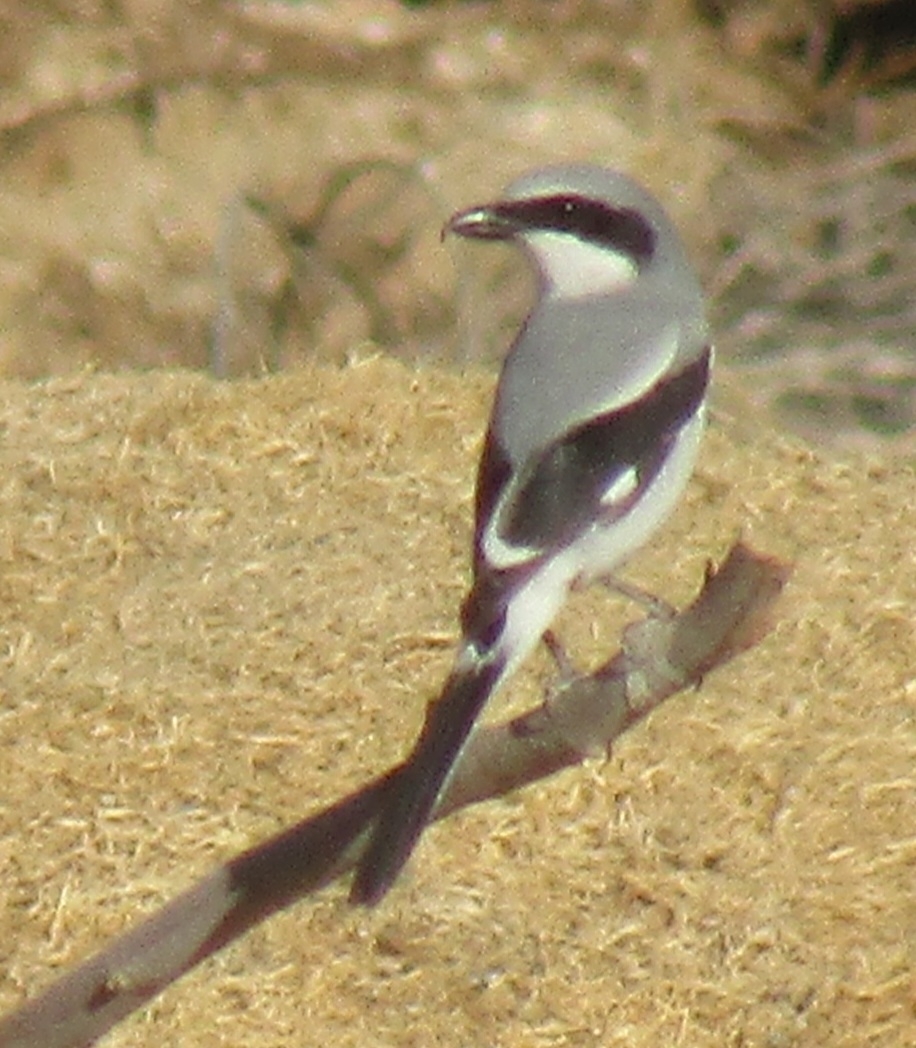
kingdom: Animalia
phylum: Chordata
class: Aves
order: Passeriformes
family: Laniidae
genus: Lanius
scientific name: Lanius ludovicianus
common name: Loggerhead shrike
